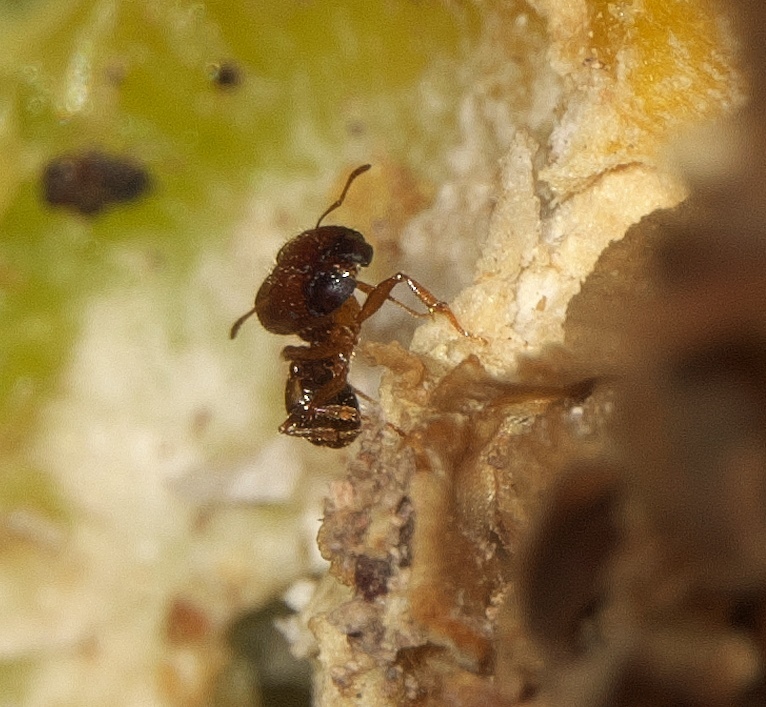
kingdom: Animalia
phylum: Arthropoda
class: Insecta
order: Hymenoptera
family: Formicidae
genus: Pheidole
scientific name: Pheidole tepicana
